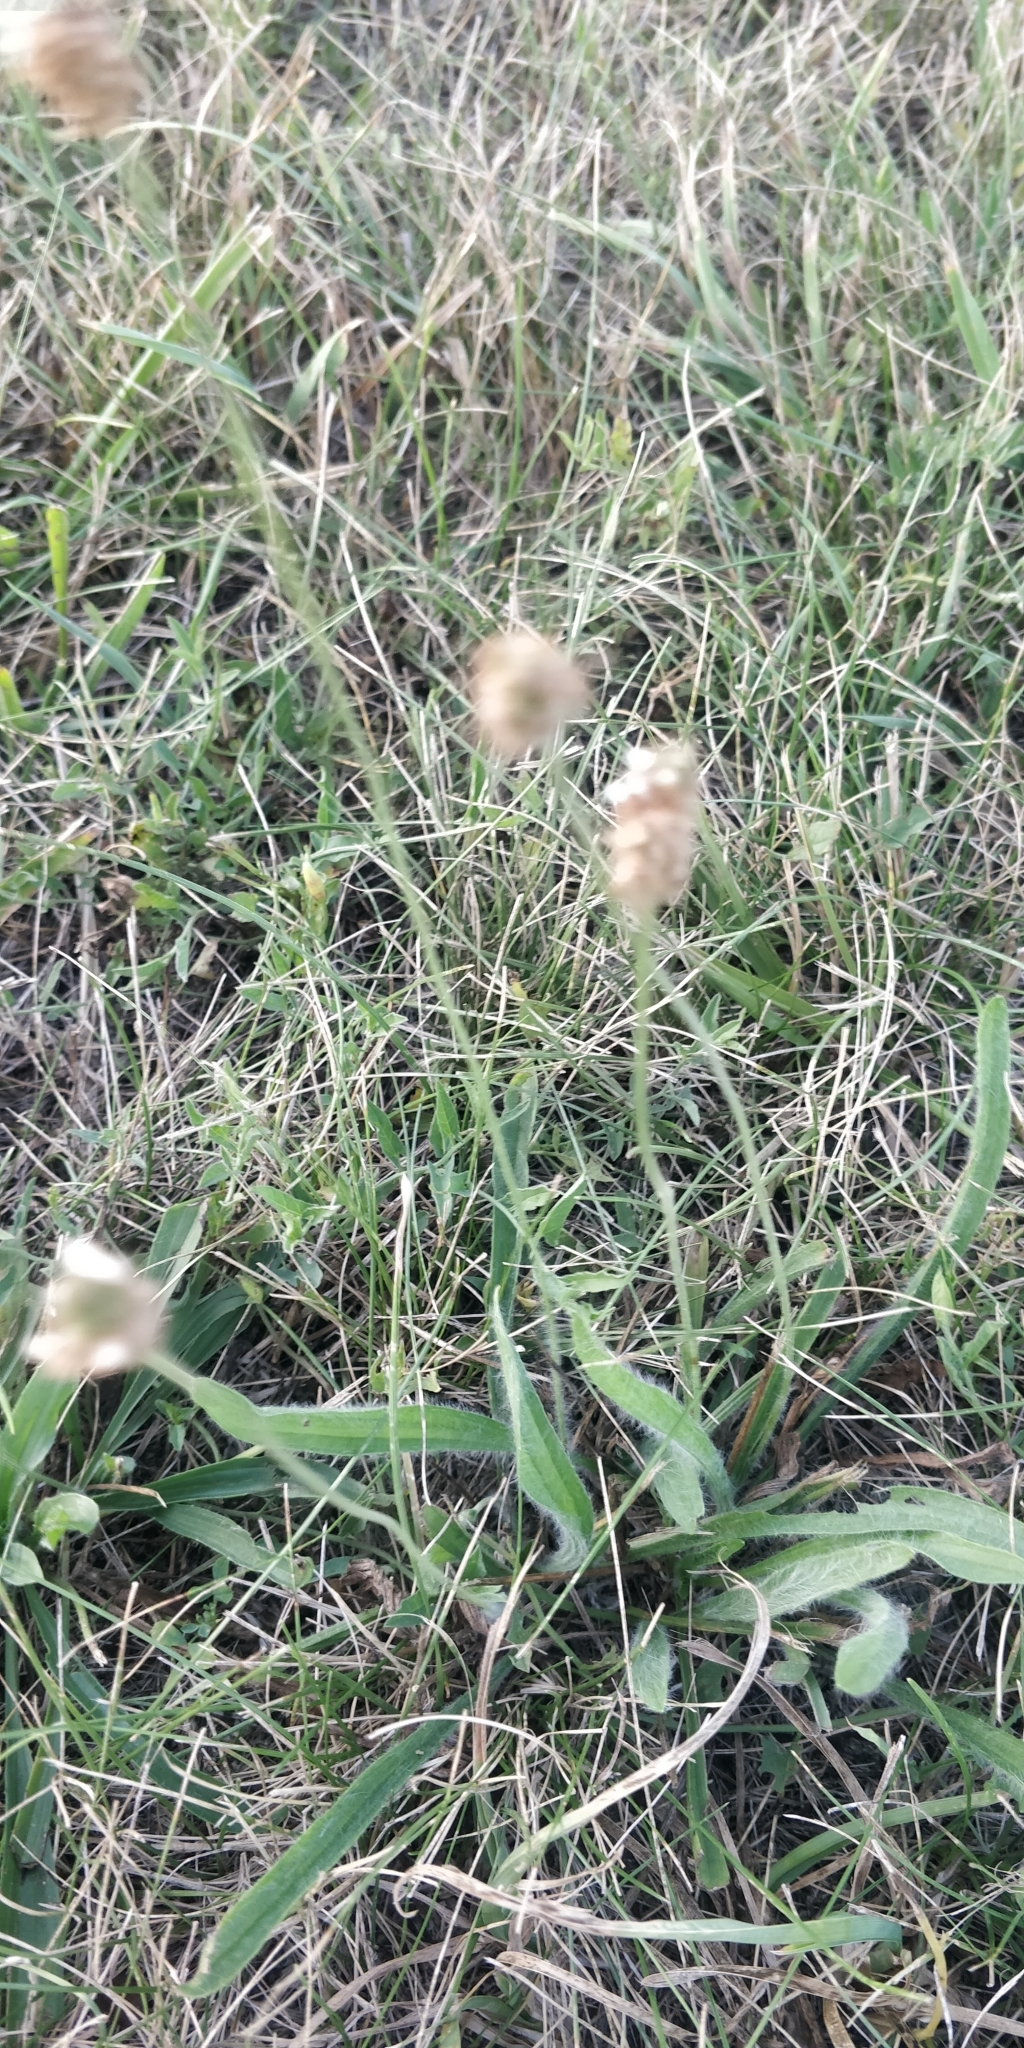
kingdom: Plantae
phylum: Tracheophyta
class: Magnoliopsida
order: Lamiales
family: Plantaginaceae
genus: Plantago
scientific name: Plantago lanceolata
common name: Ribwort plantain
